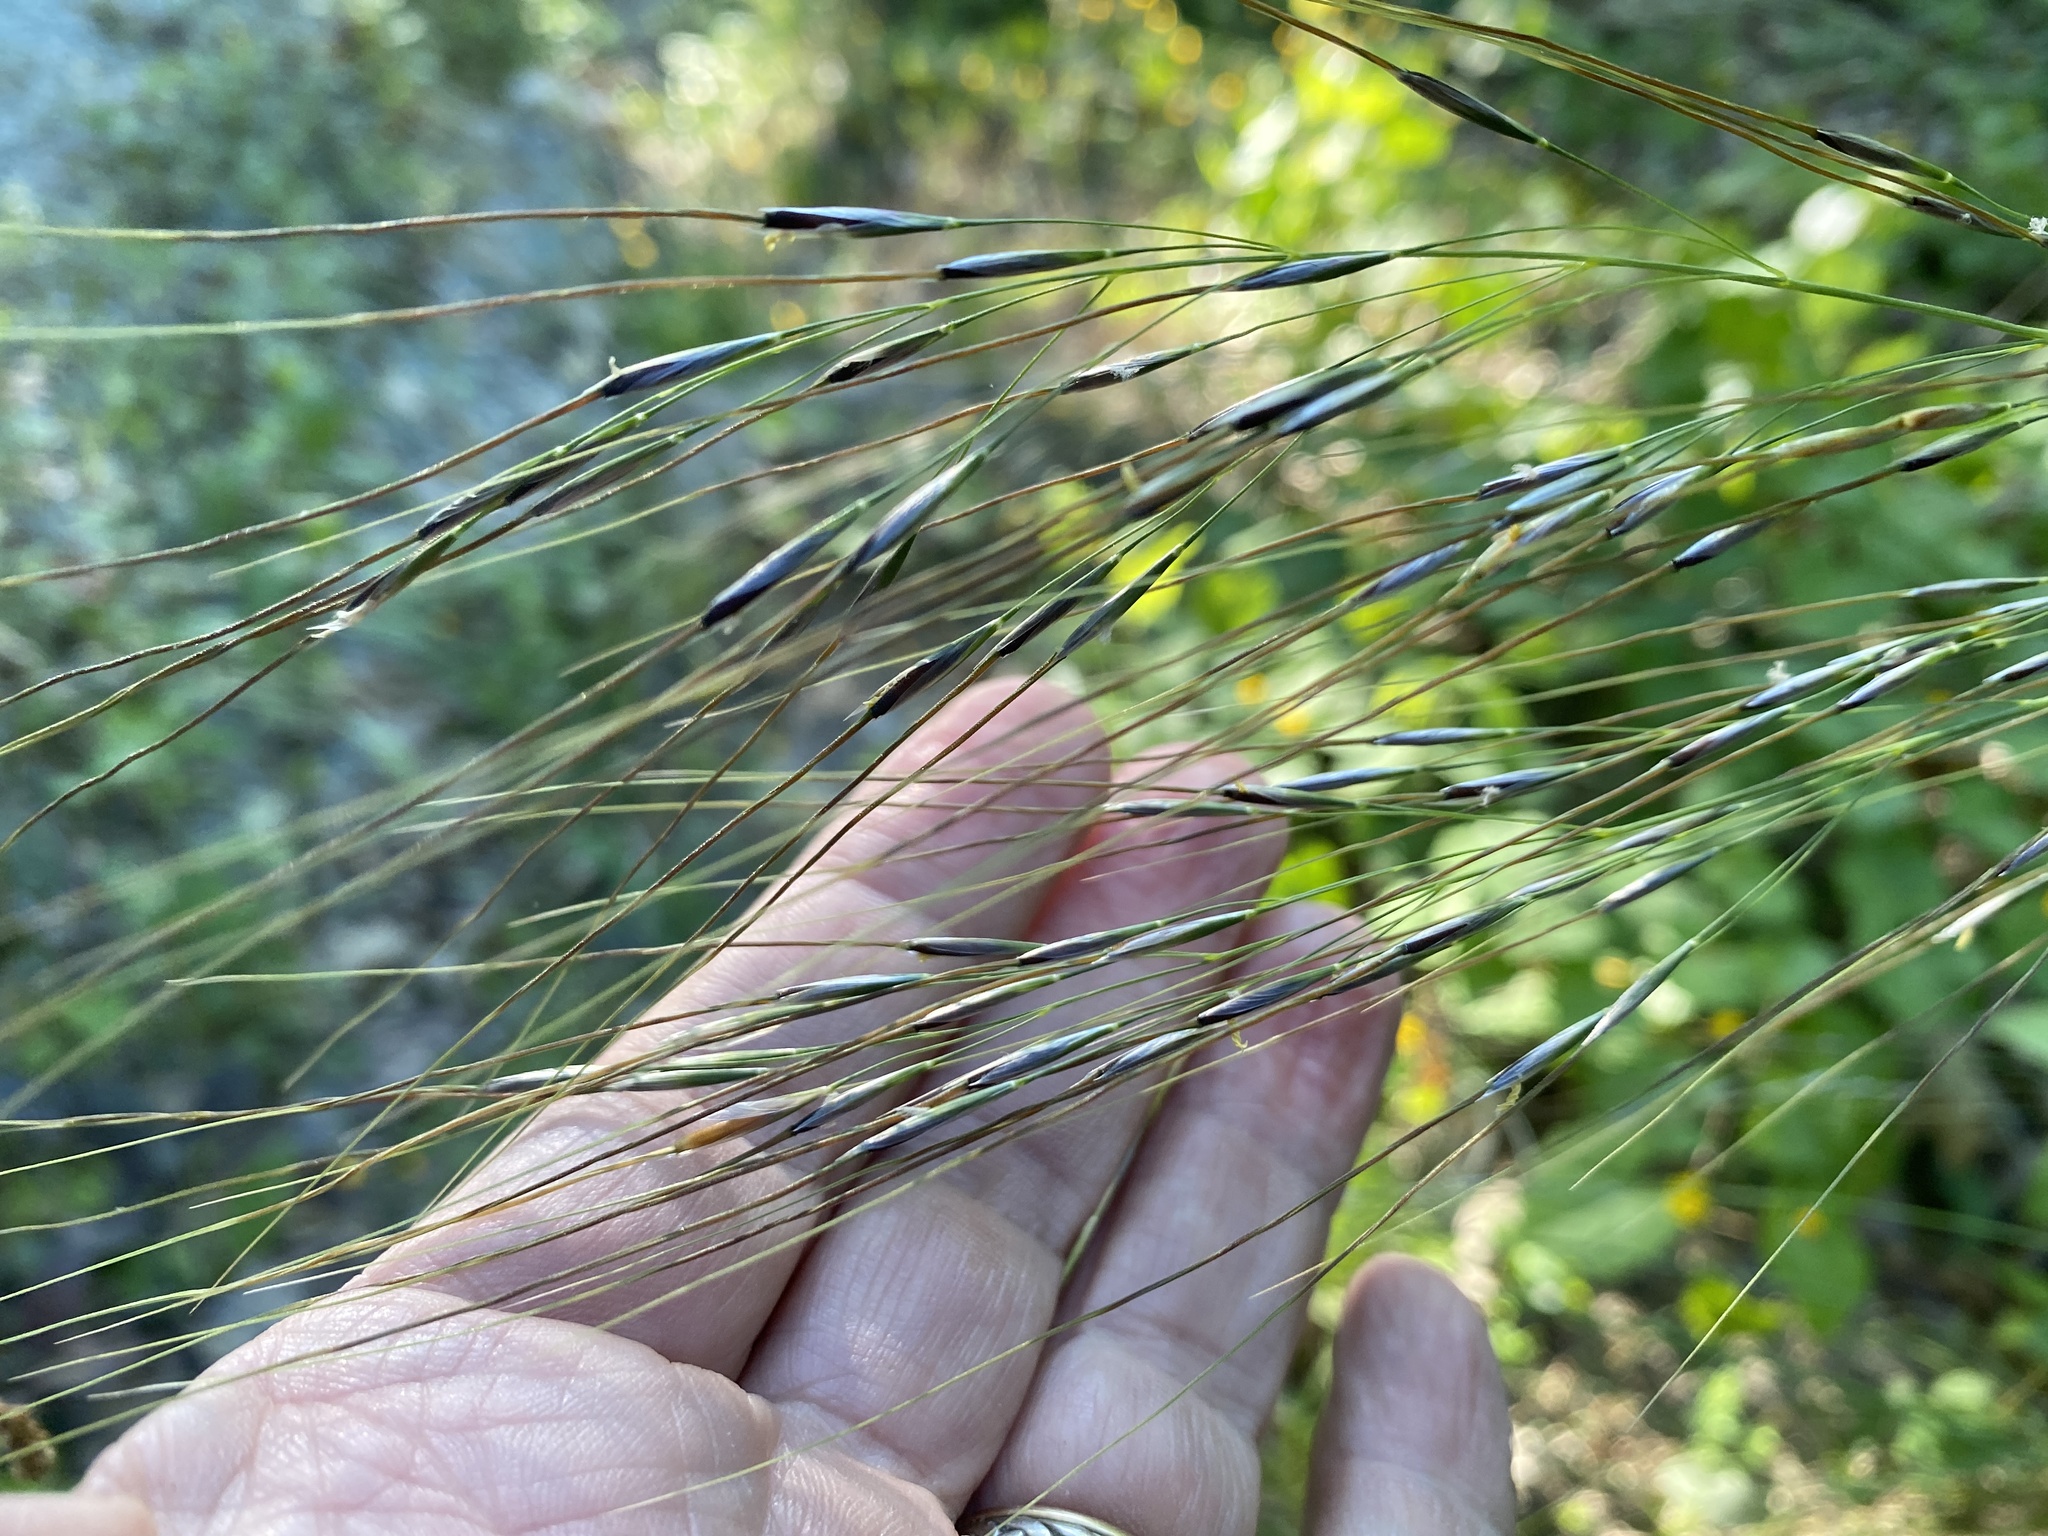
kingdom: Plantae
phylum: Tracheophyta
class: Liliopsida
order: Poales
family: Poaceae
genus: Piptochaetium
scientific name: Piptochaetium avenaceum
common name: Black bunchgrass
